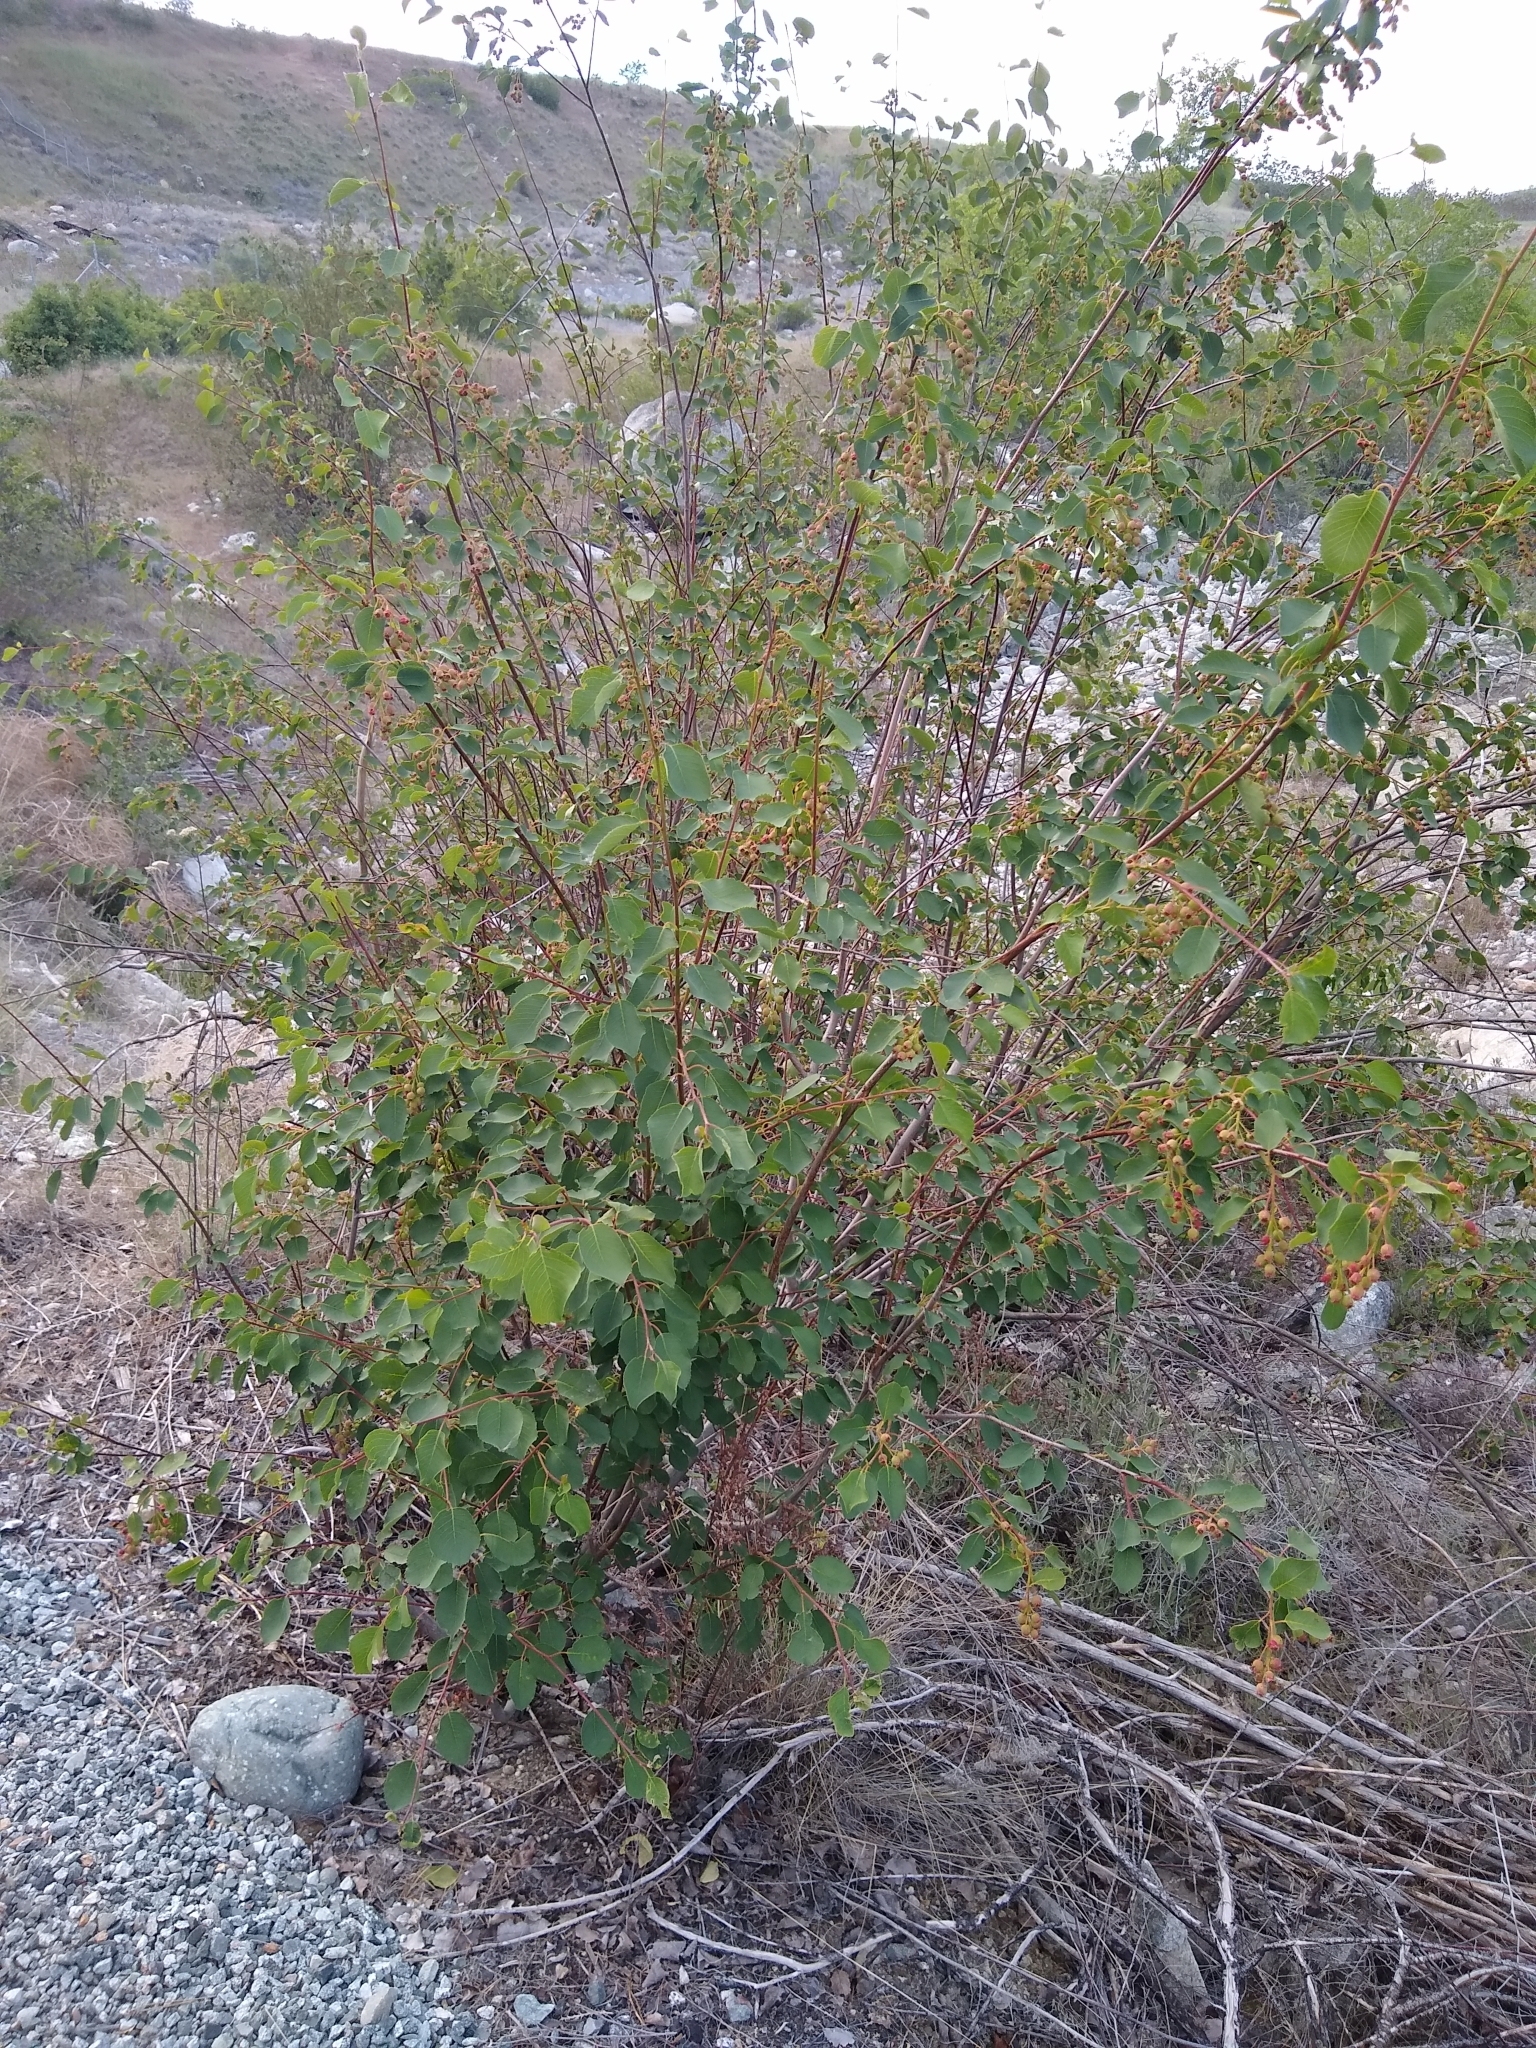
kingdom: Plantae
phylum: Tracheophyta
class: Magnoliopsida
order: Rosales
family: Rosaceae
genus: Amelanchier
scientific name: Amelanchier alnifolia
